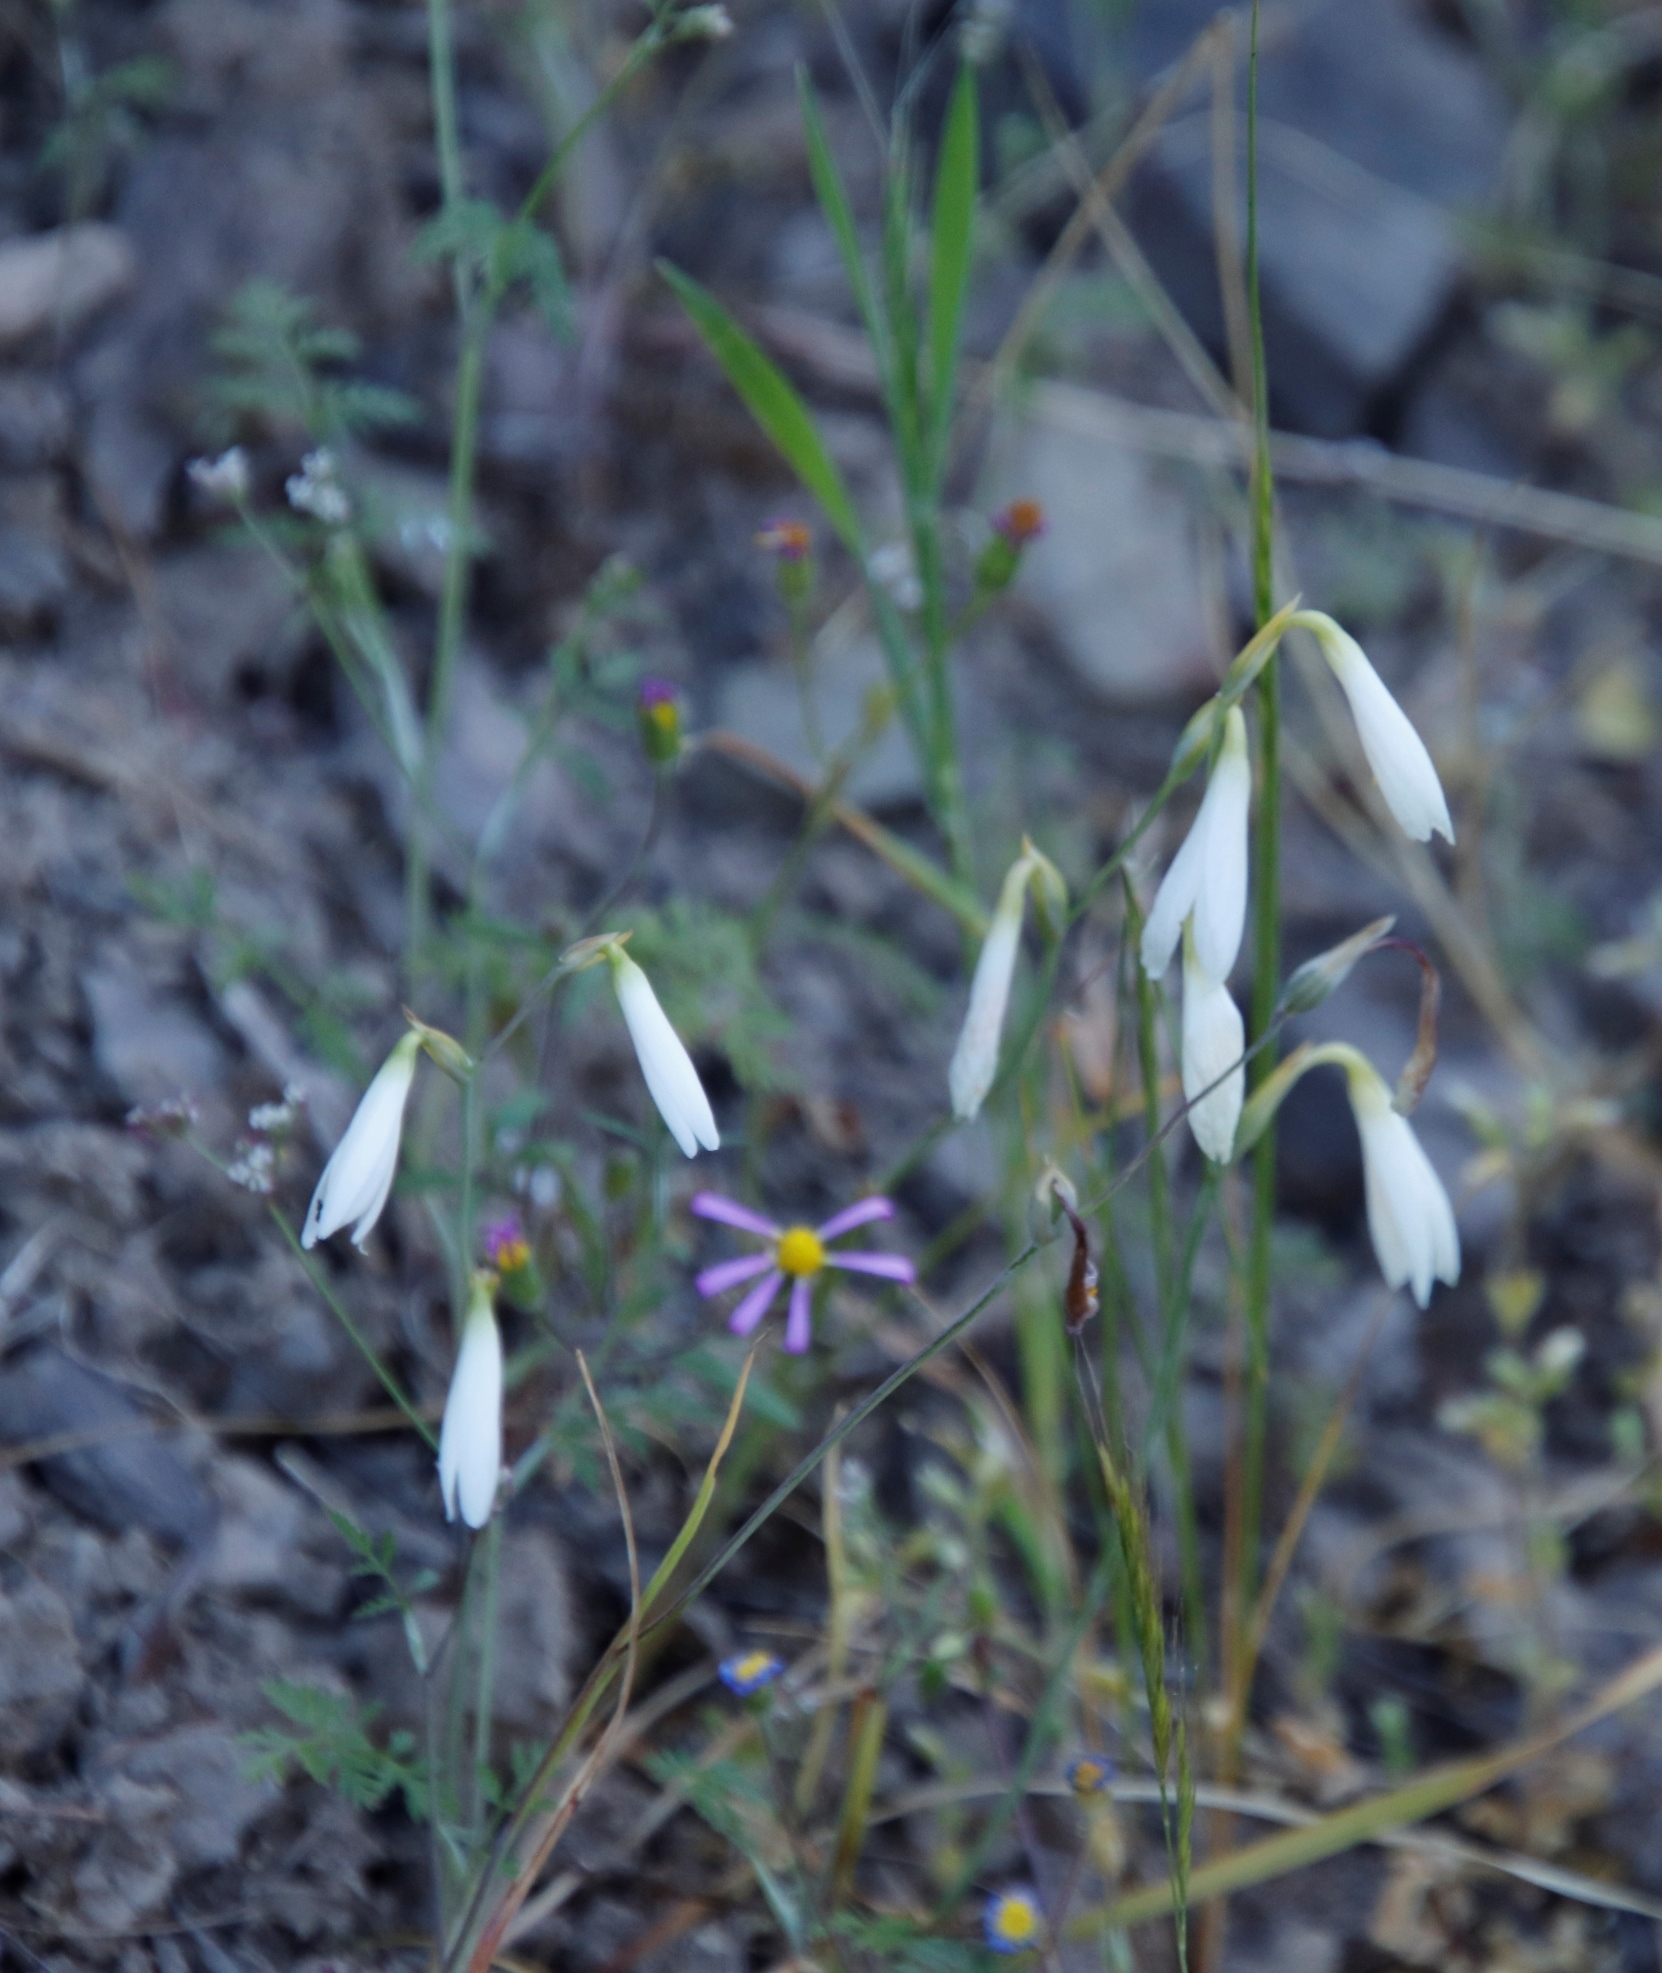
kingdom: Plantae
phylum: Tracheophyta
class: Liliopsida
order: Asparagales
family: Iridaceae
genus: Hesperantha
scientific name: Hesperantha bachmannii
